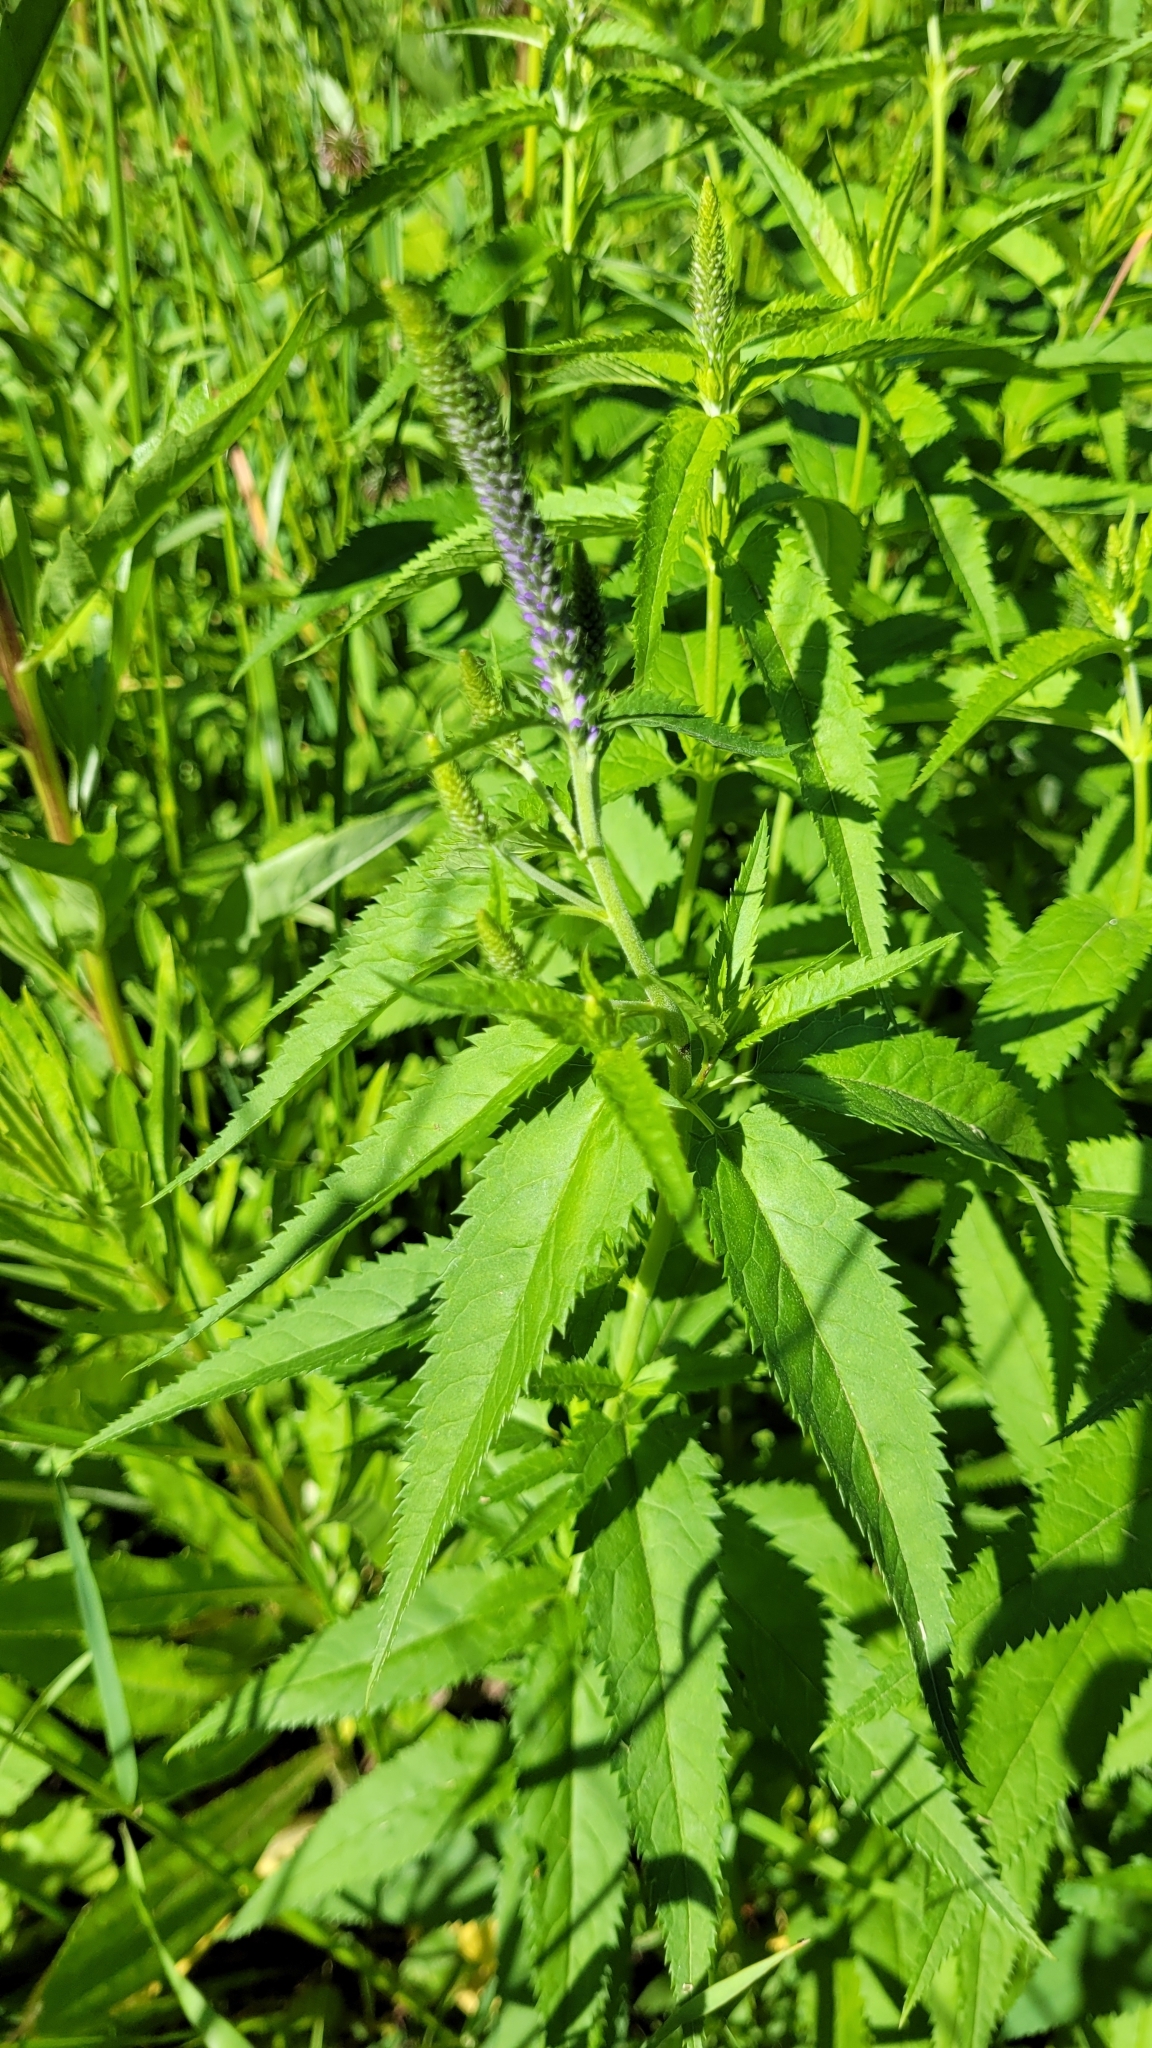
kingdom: Plantae
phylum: Tracheophyta
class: Magnoliopsida
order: Lamiales
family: Plantaginaceae
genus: Veronica
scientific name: Veronica longifolia
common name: Garden speedwell
